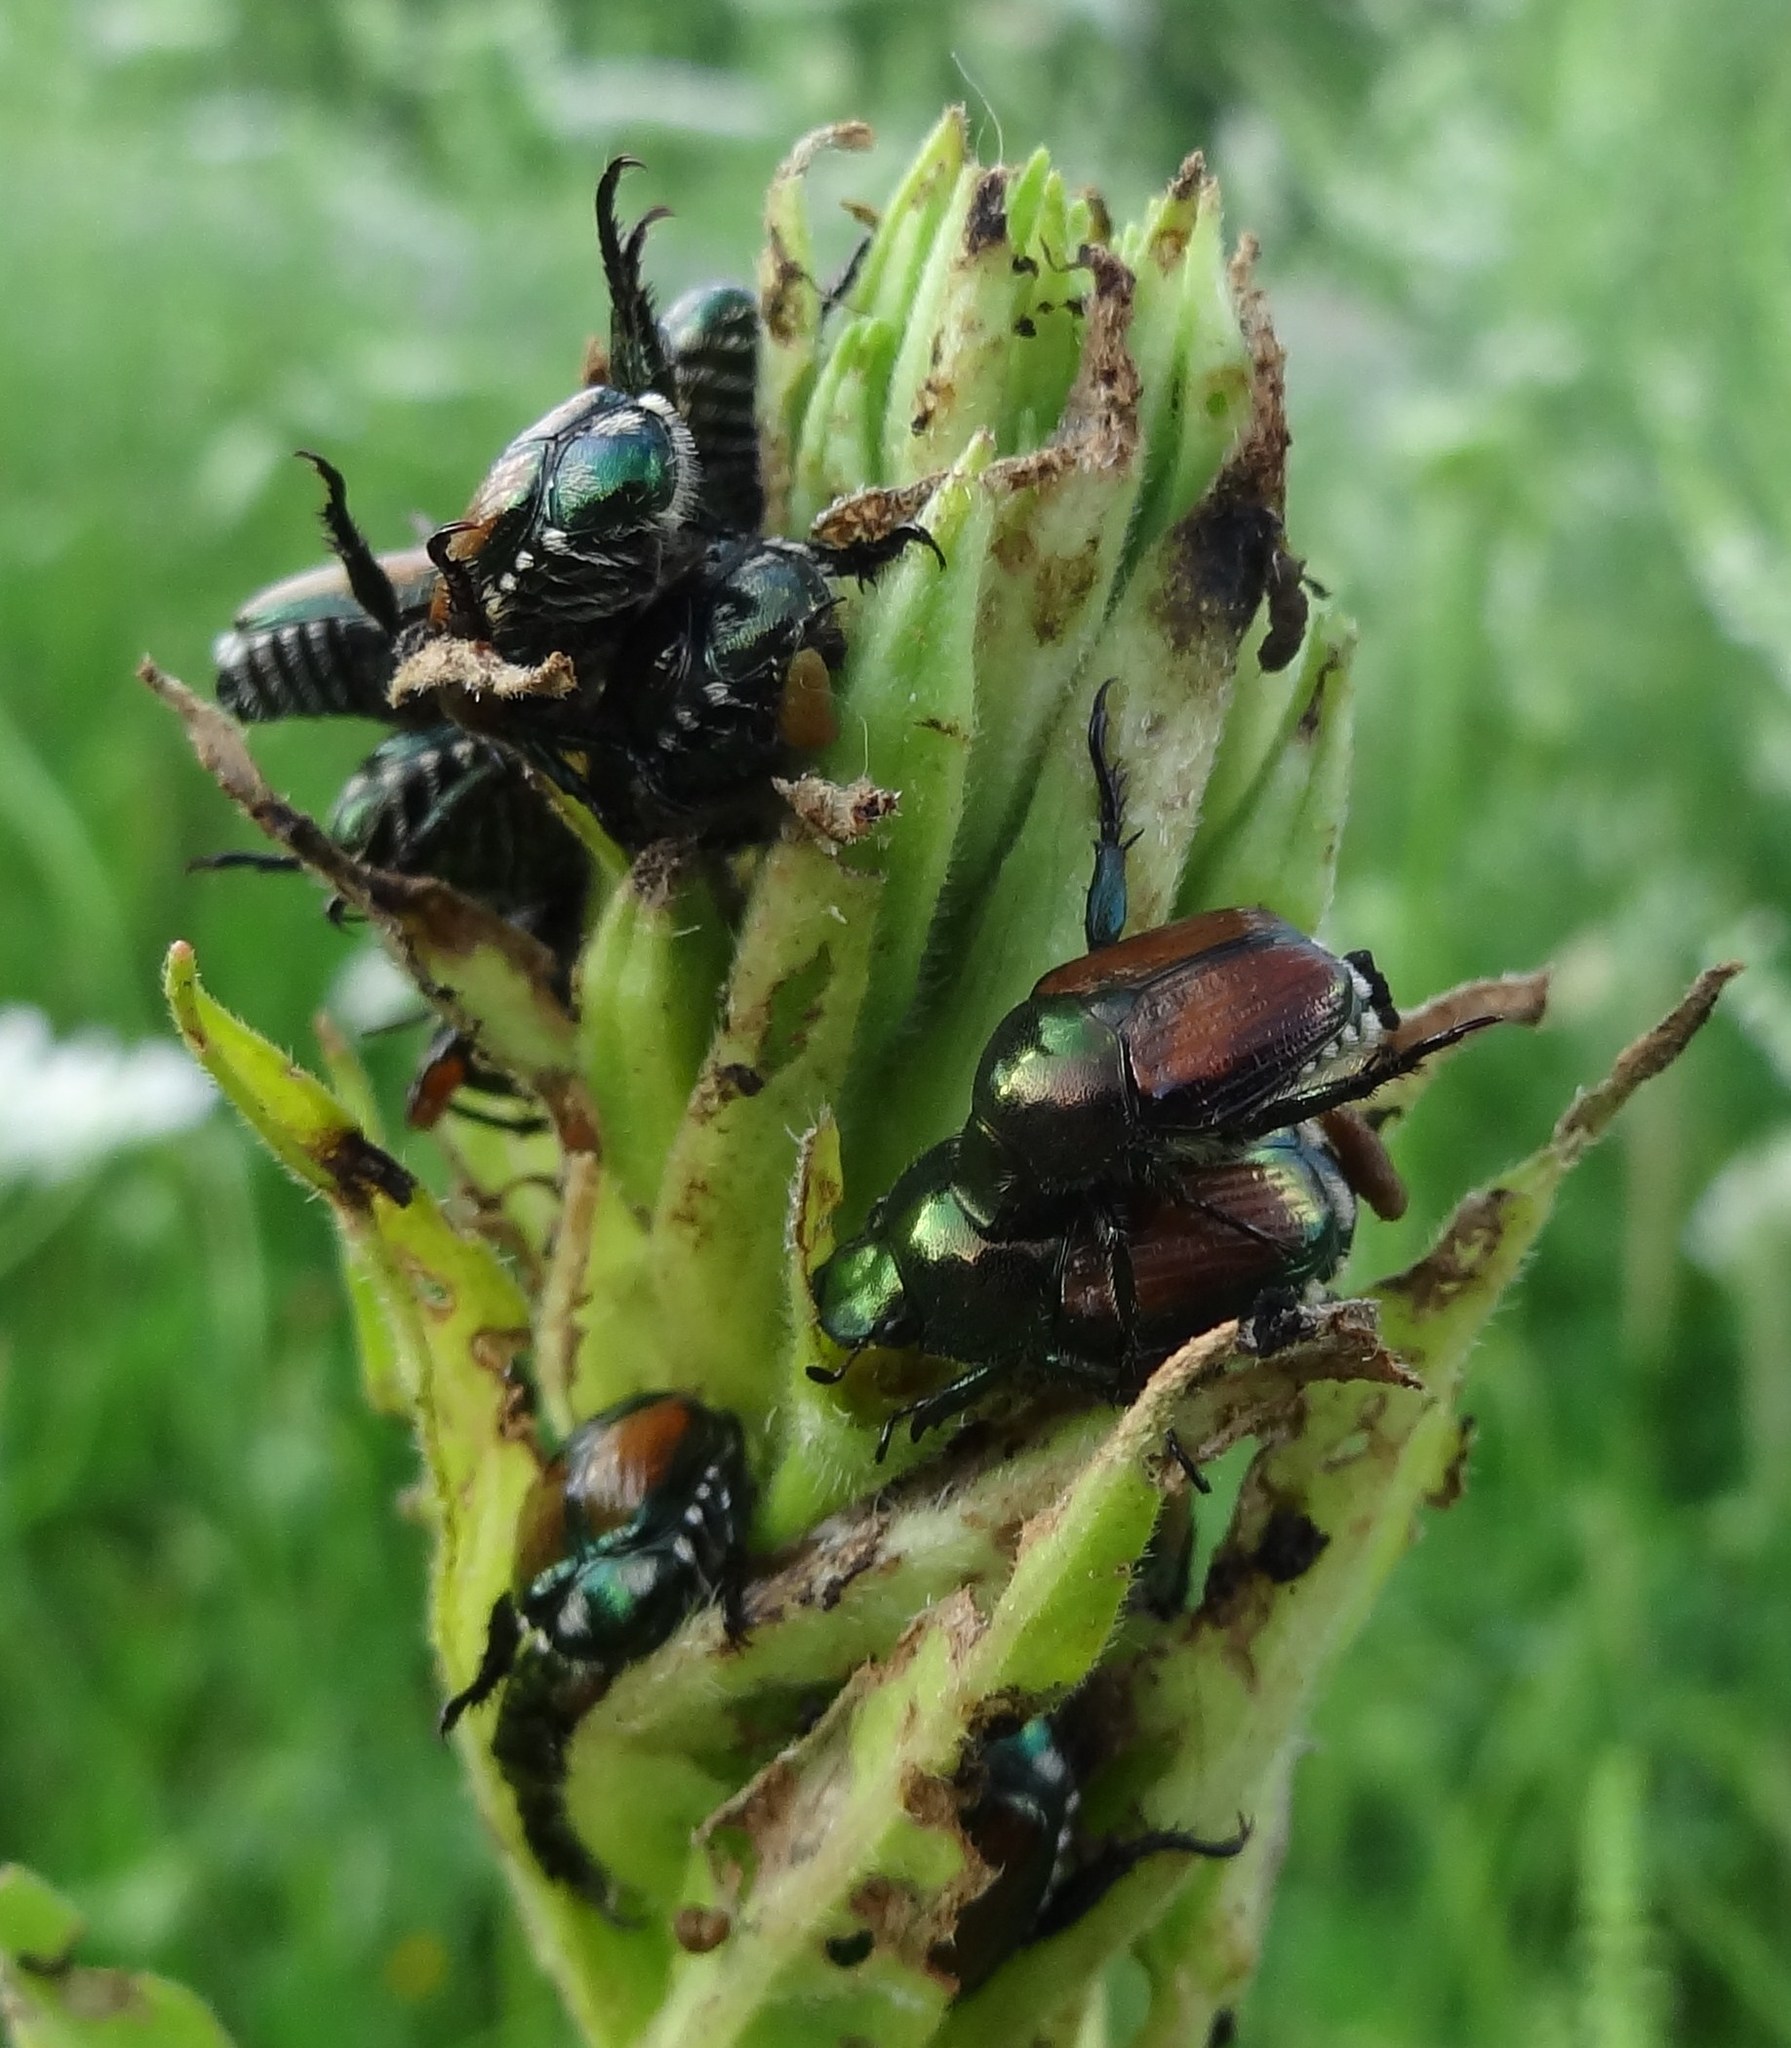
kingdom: Animalia
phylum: Arthropoda
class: Insecta
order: Coleoptera
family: Scarabaeidae
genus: Popillia
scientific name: Popillia japonica
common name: Japanese beetle
